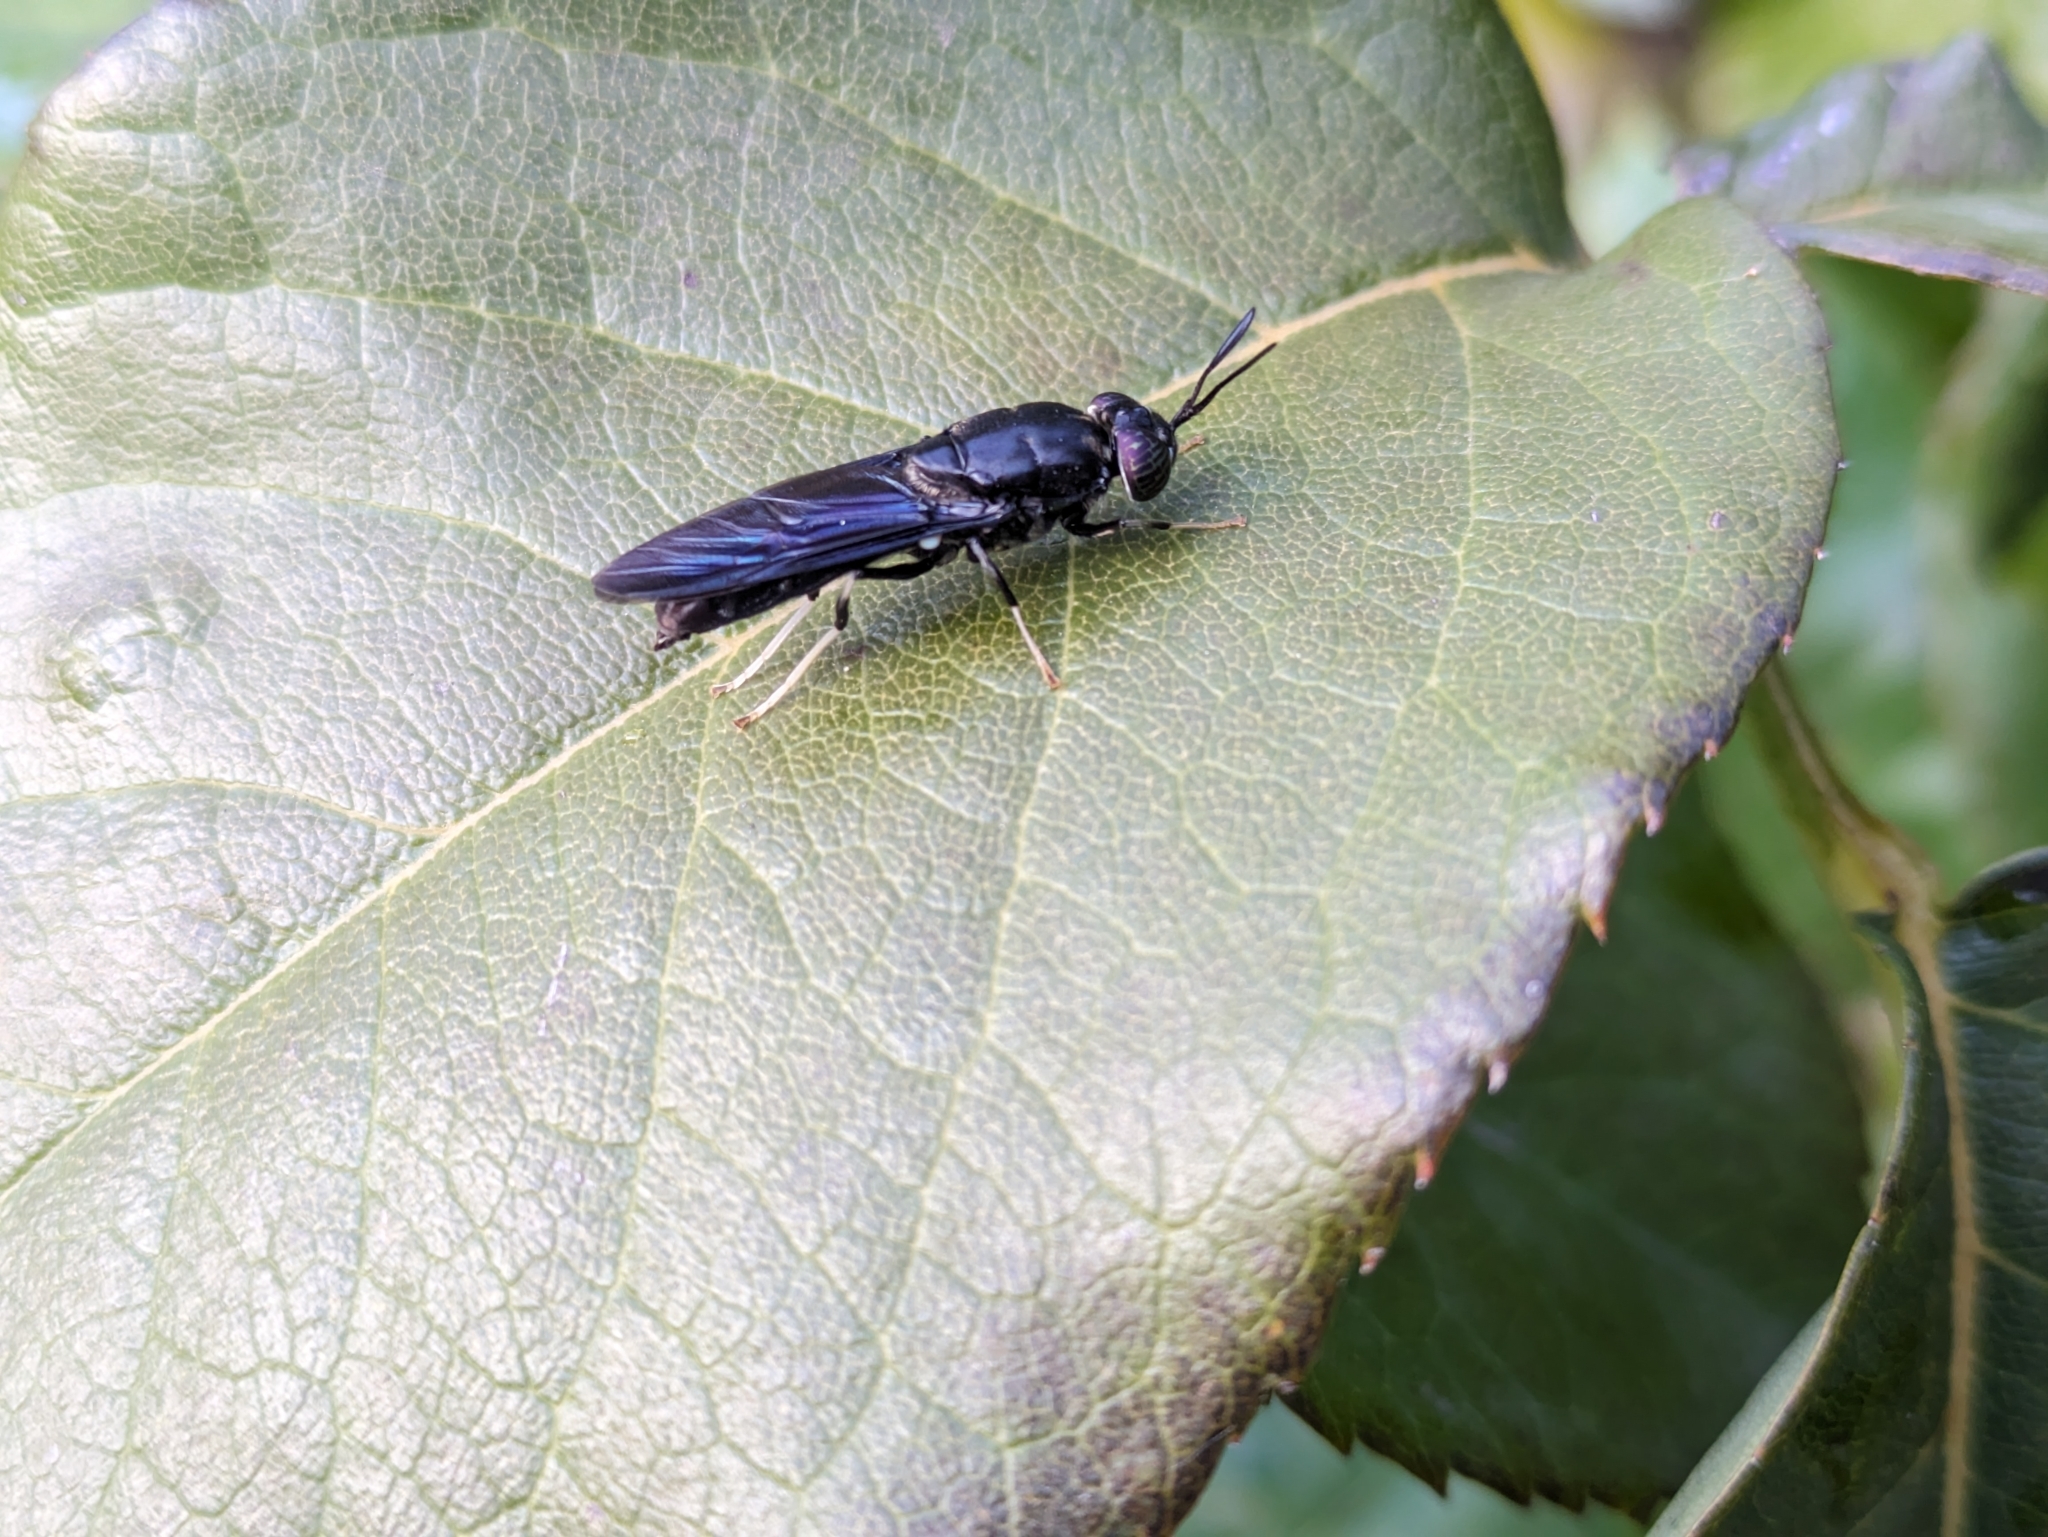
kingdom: Animalia
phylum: Arthropoda
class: Insecta
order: Diptera
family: Stratiomyidae
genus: Hermetia
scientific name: Hermetia illucens
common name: Black soldier fly
